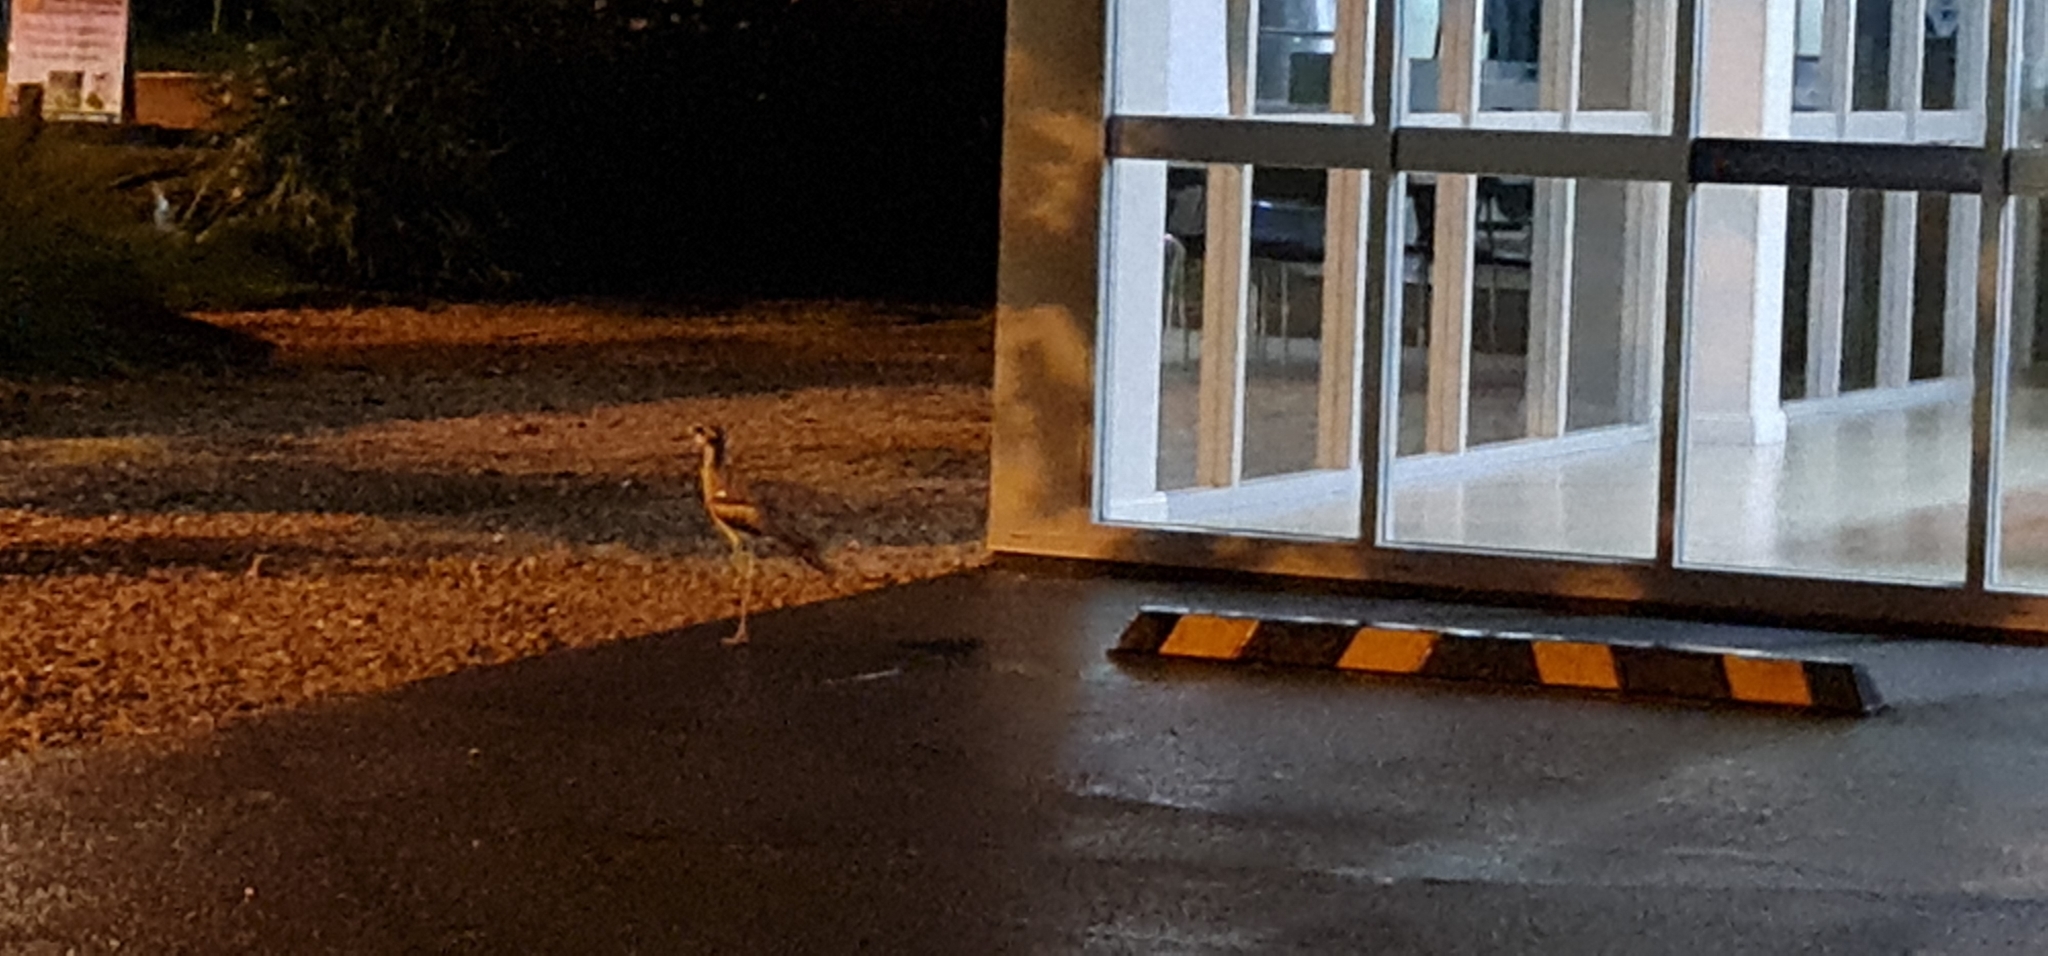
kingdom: Animalia
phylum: Chordata
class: Aves
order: Charadriiformes
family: Burhinidae
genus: Burhinus
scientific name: Burhinus grallarius
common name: Bush stone-curlew
